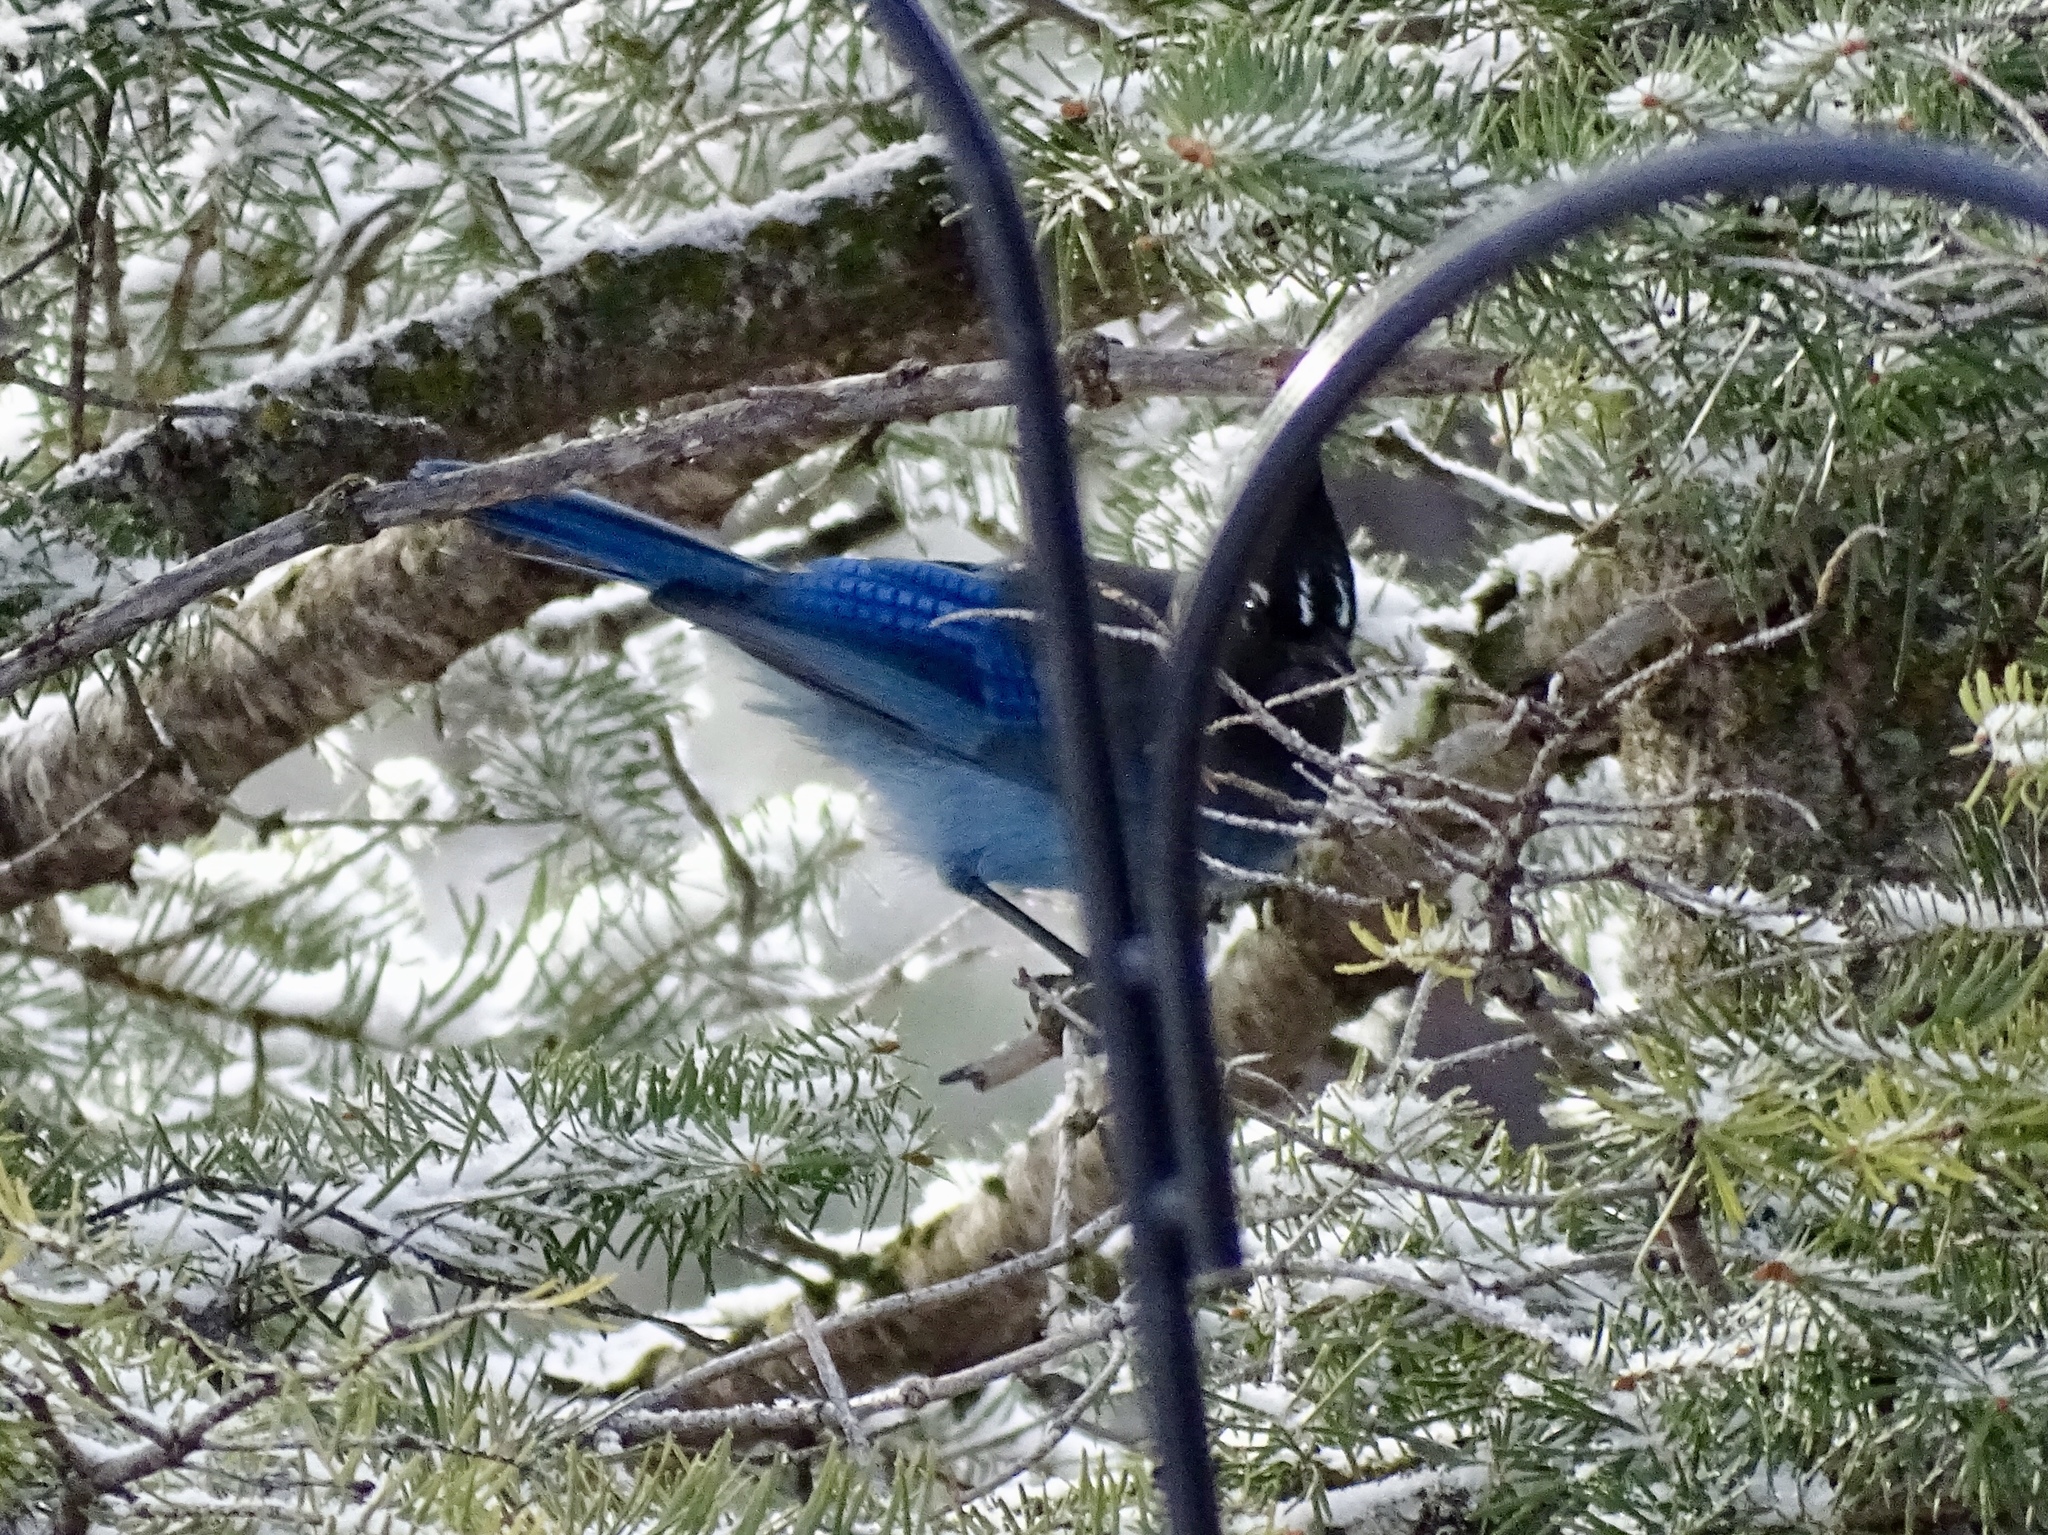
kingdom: Animalia
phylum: Chordata
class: Aves
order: Passeriformes
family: Corvidae
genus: Cyanocitta
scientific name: Cyanocitta stelleri
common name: Steller's jay
